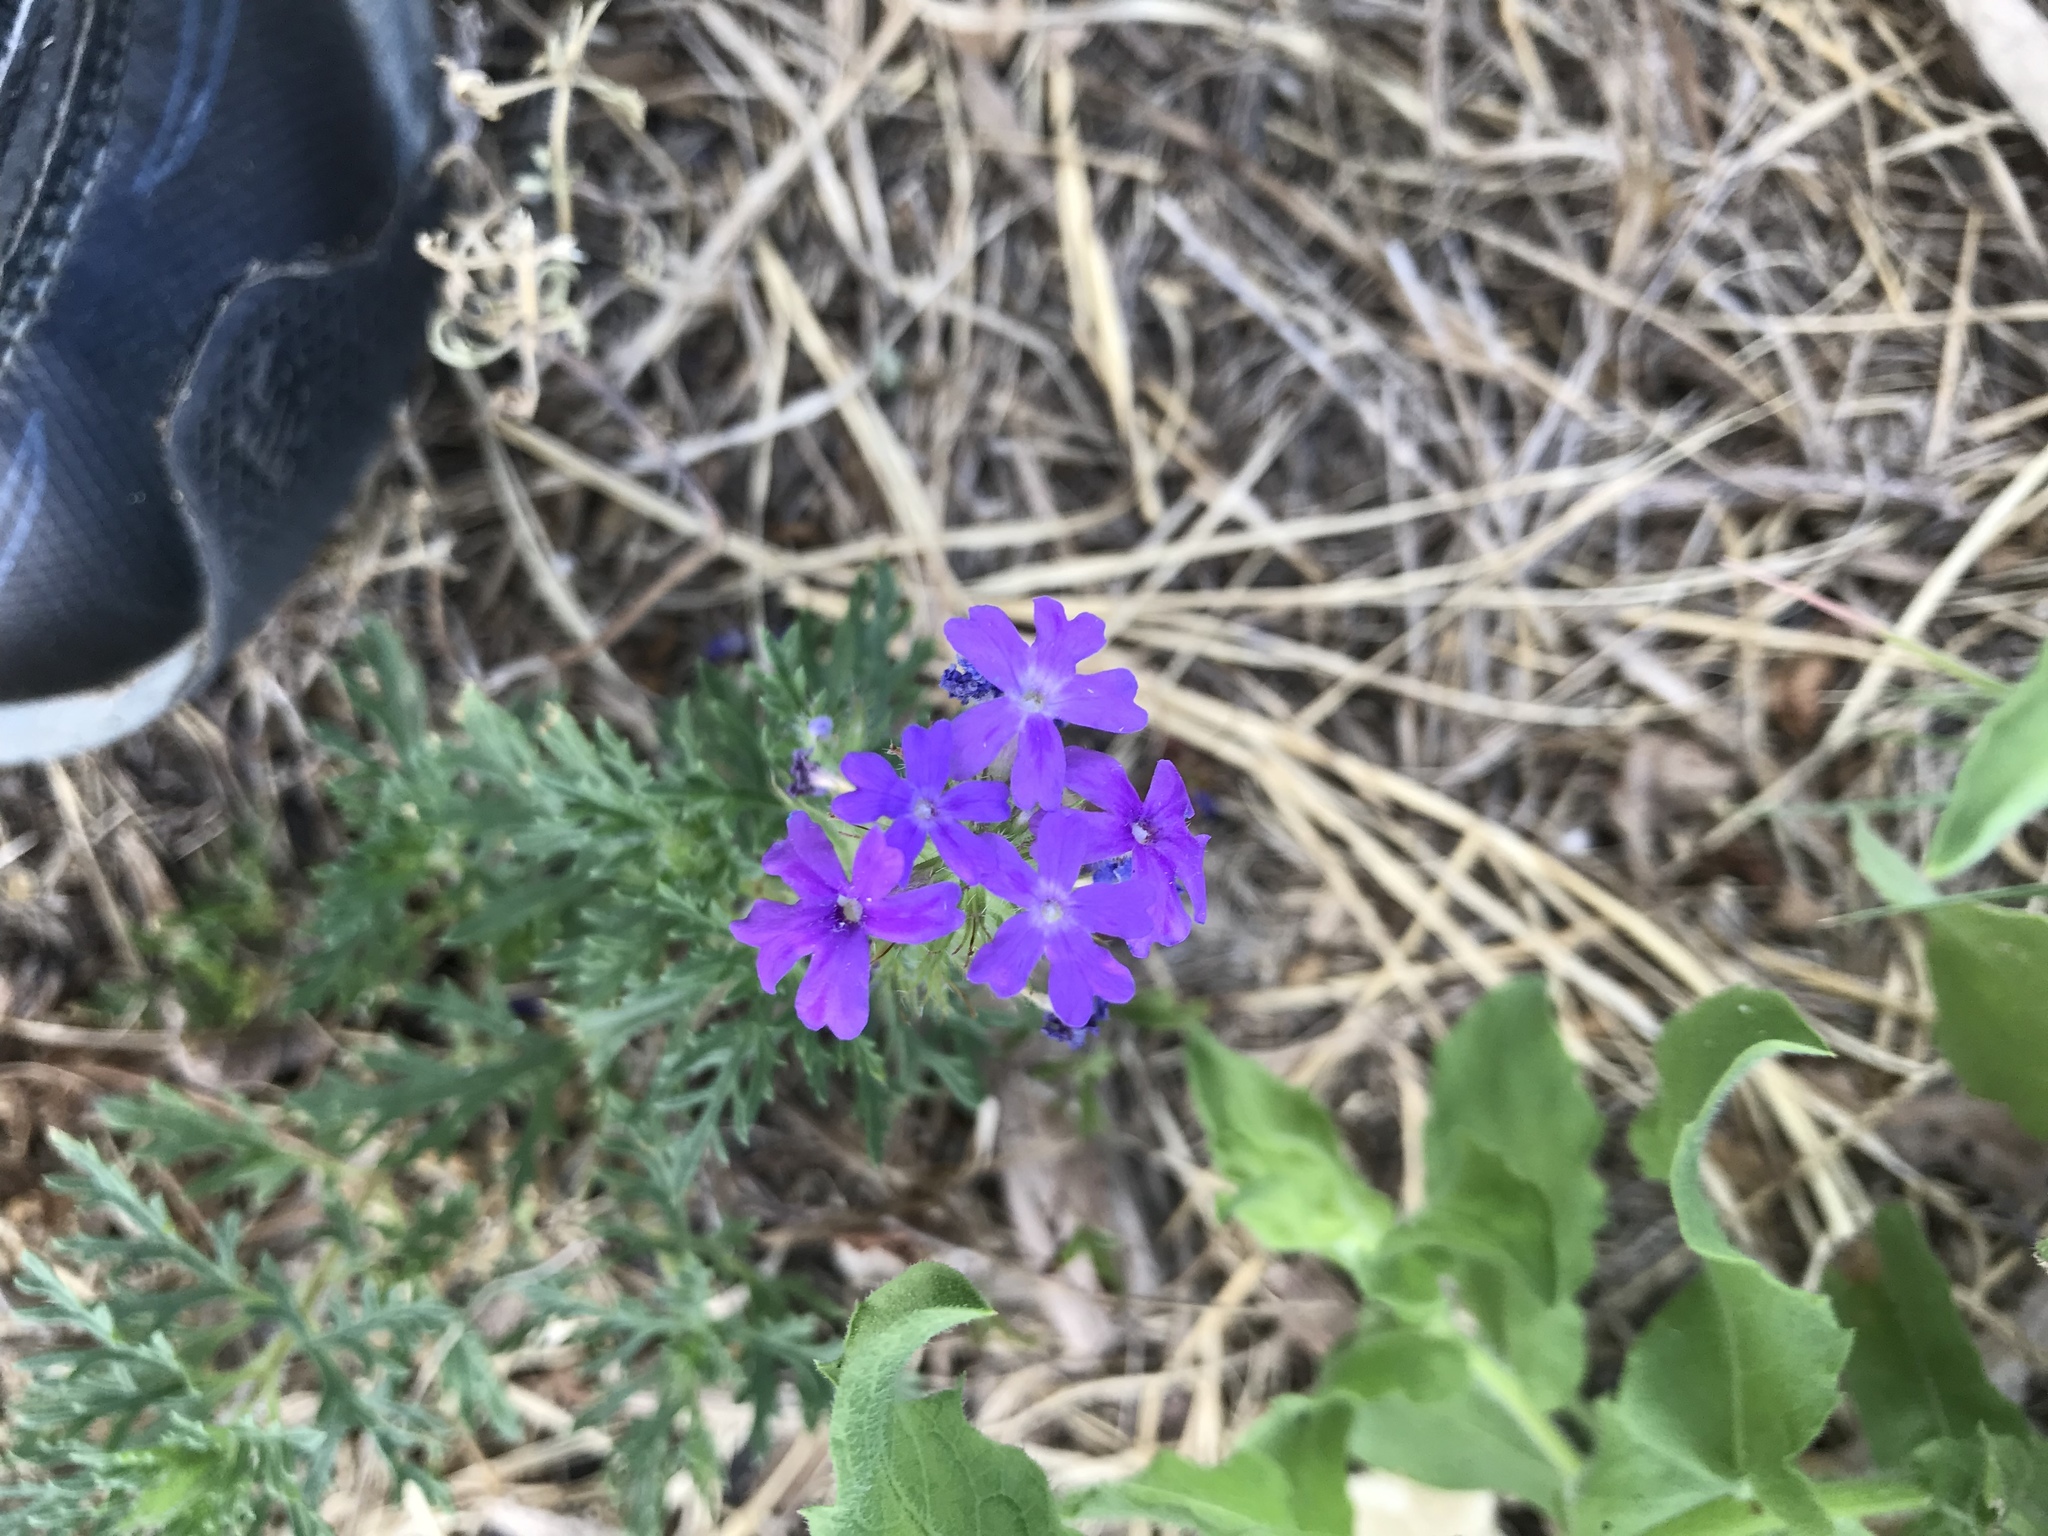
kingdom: Plantae
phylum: Tracheophyta
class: Magnoliopsida
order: Lamiales
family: Verbenaceae
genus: Verbena
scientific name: Verbena bipinnatifida
